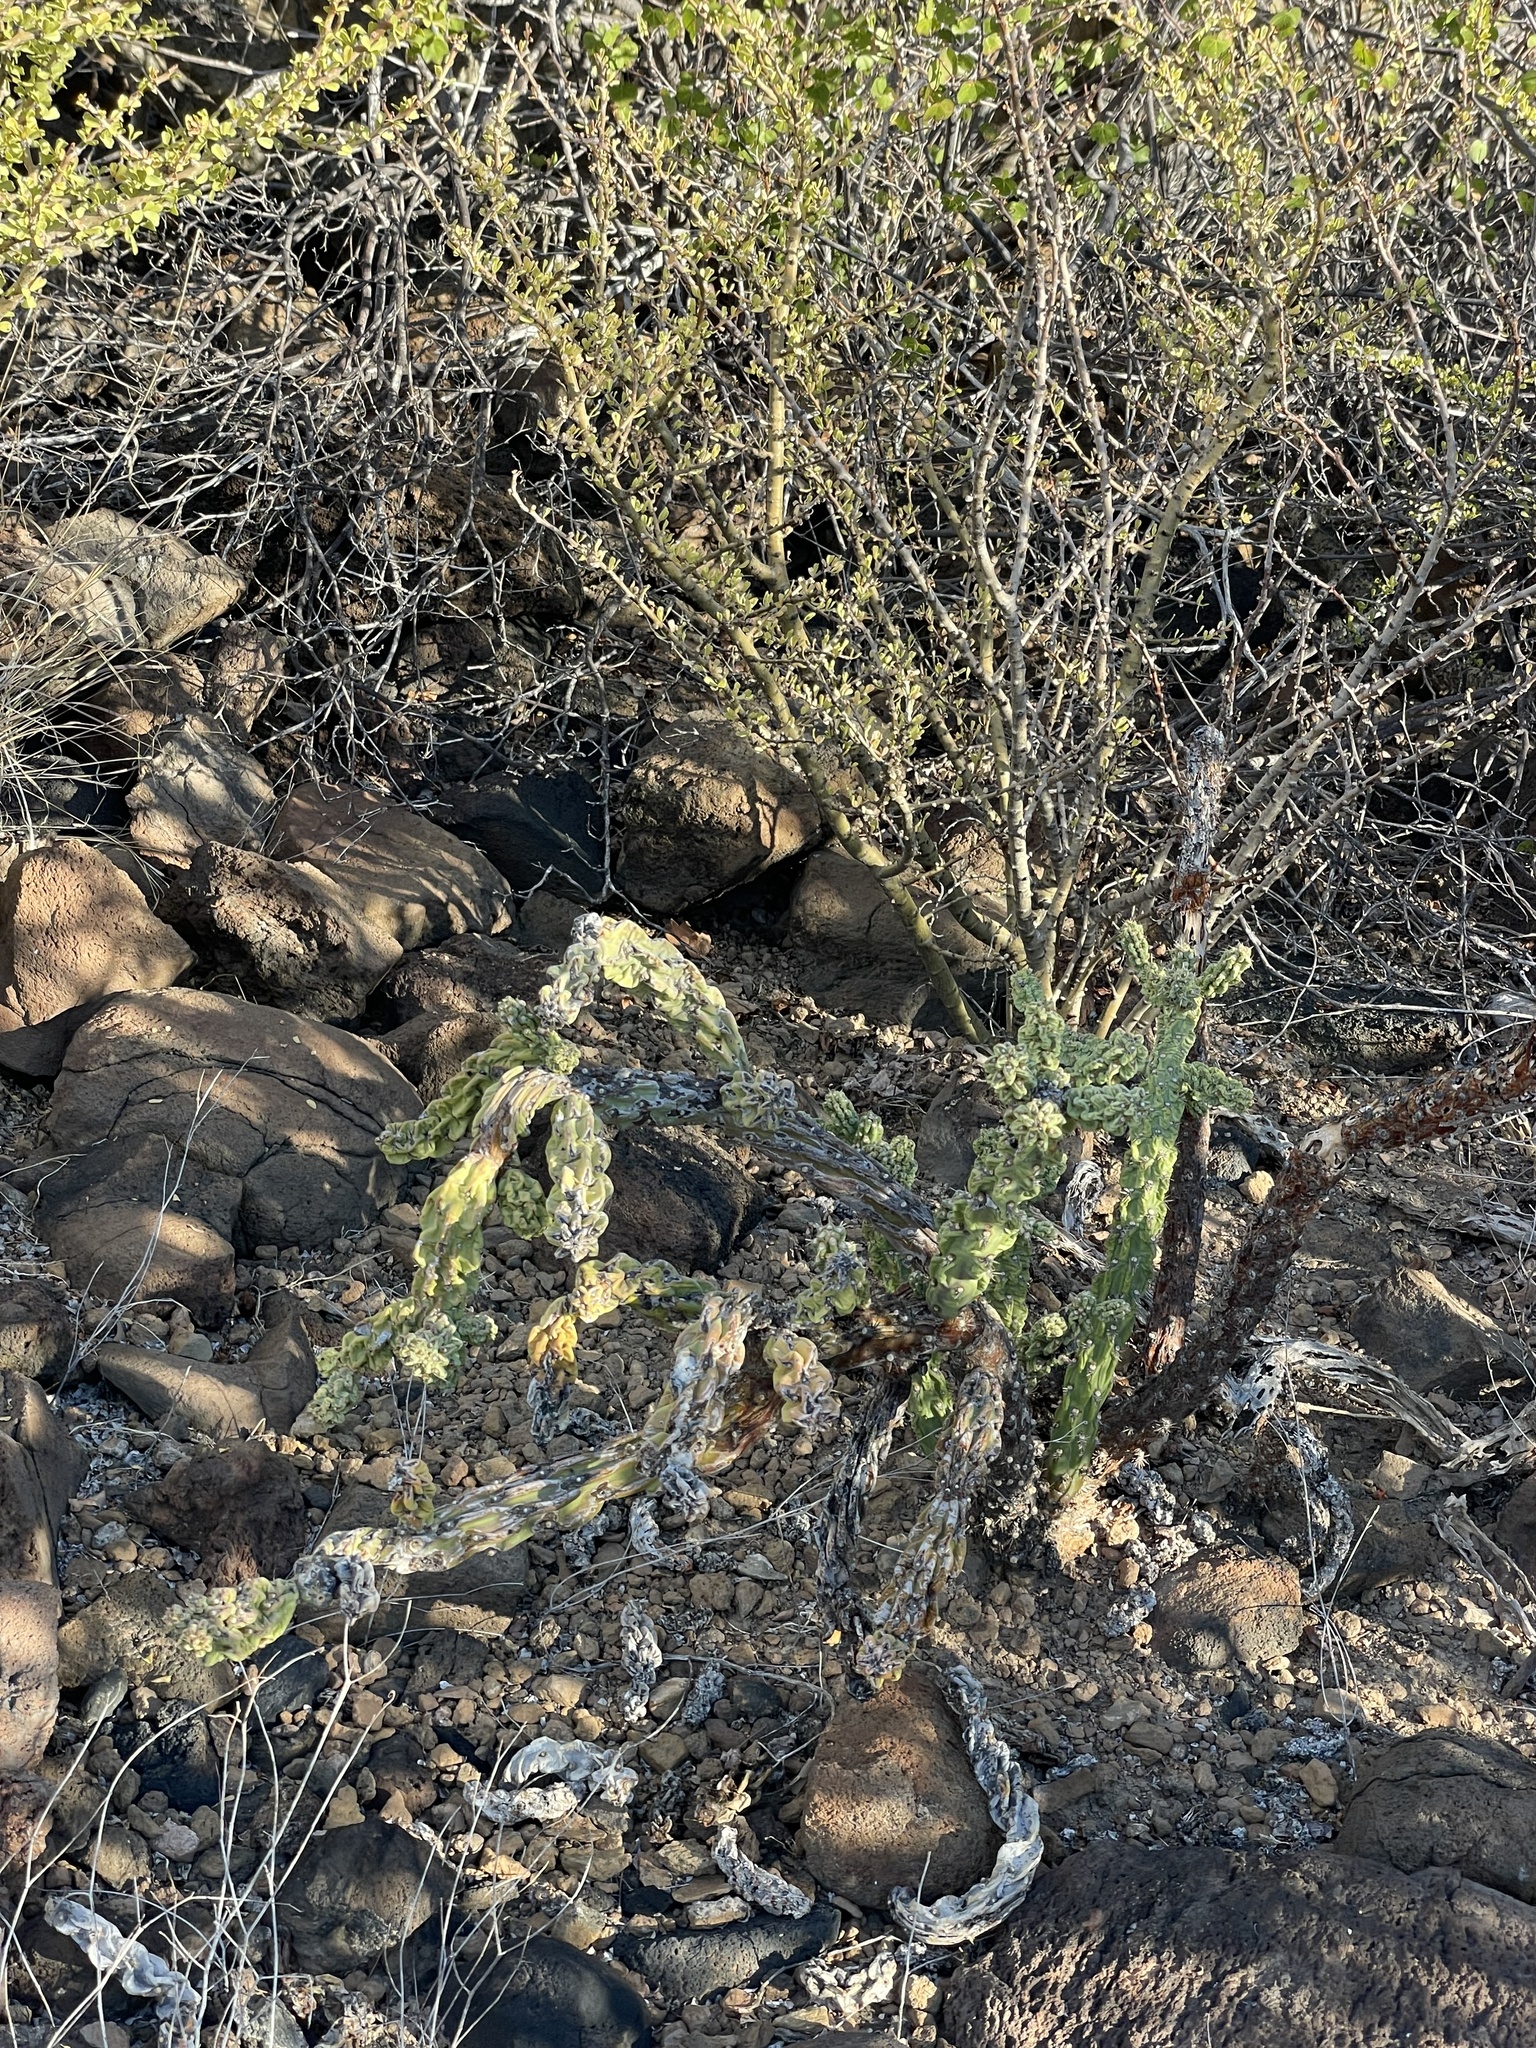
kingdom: Plantae
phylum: Tracheophyta
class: Magnoliopsida
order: Caryophyllales
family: Cactaceae
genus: Cylindropuntia
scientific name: Cylindropuntia cholla
